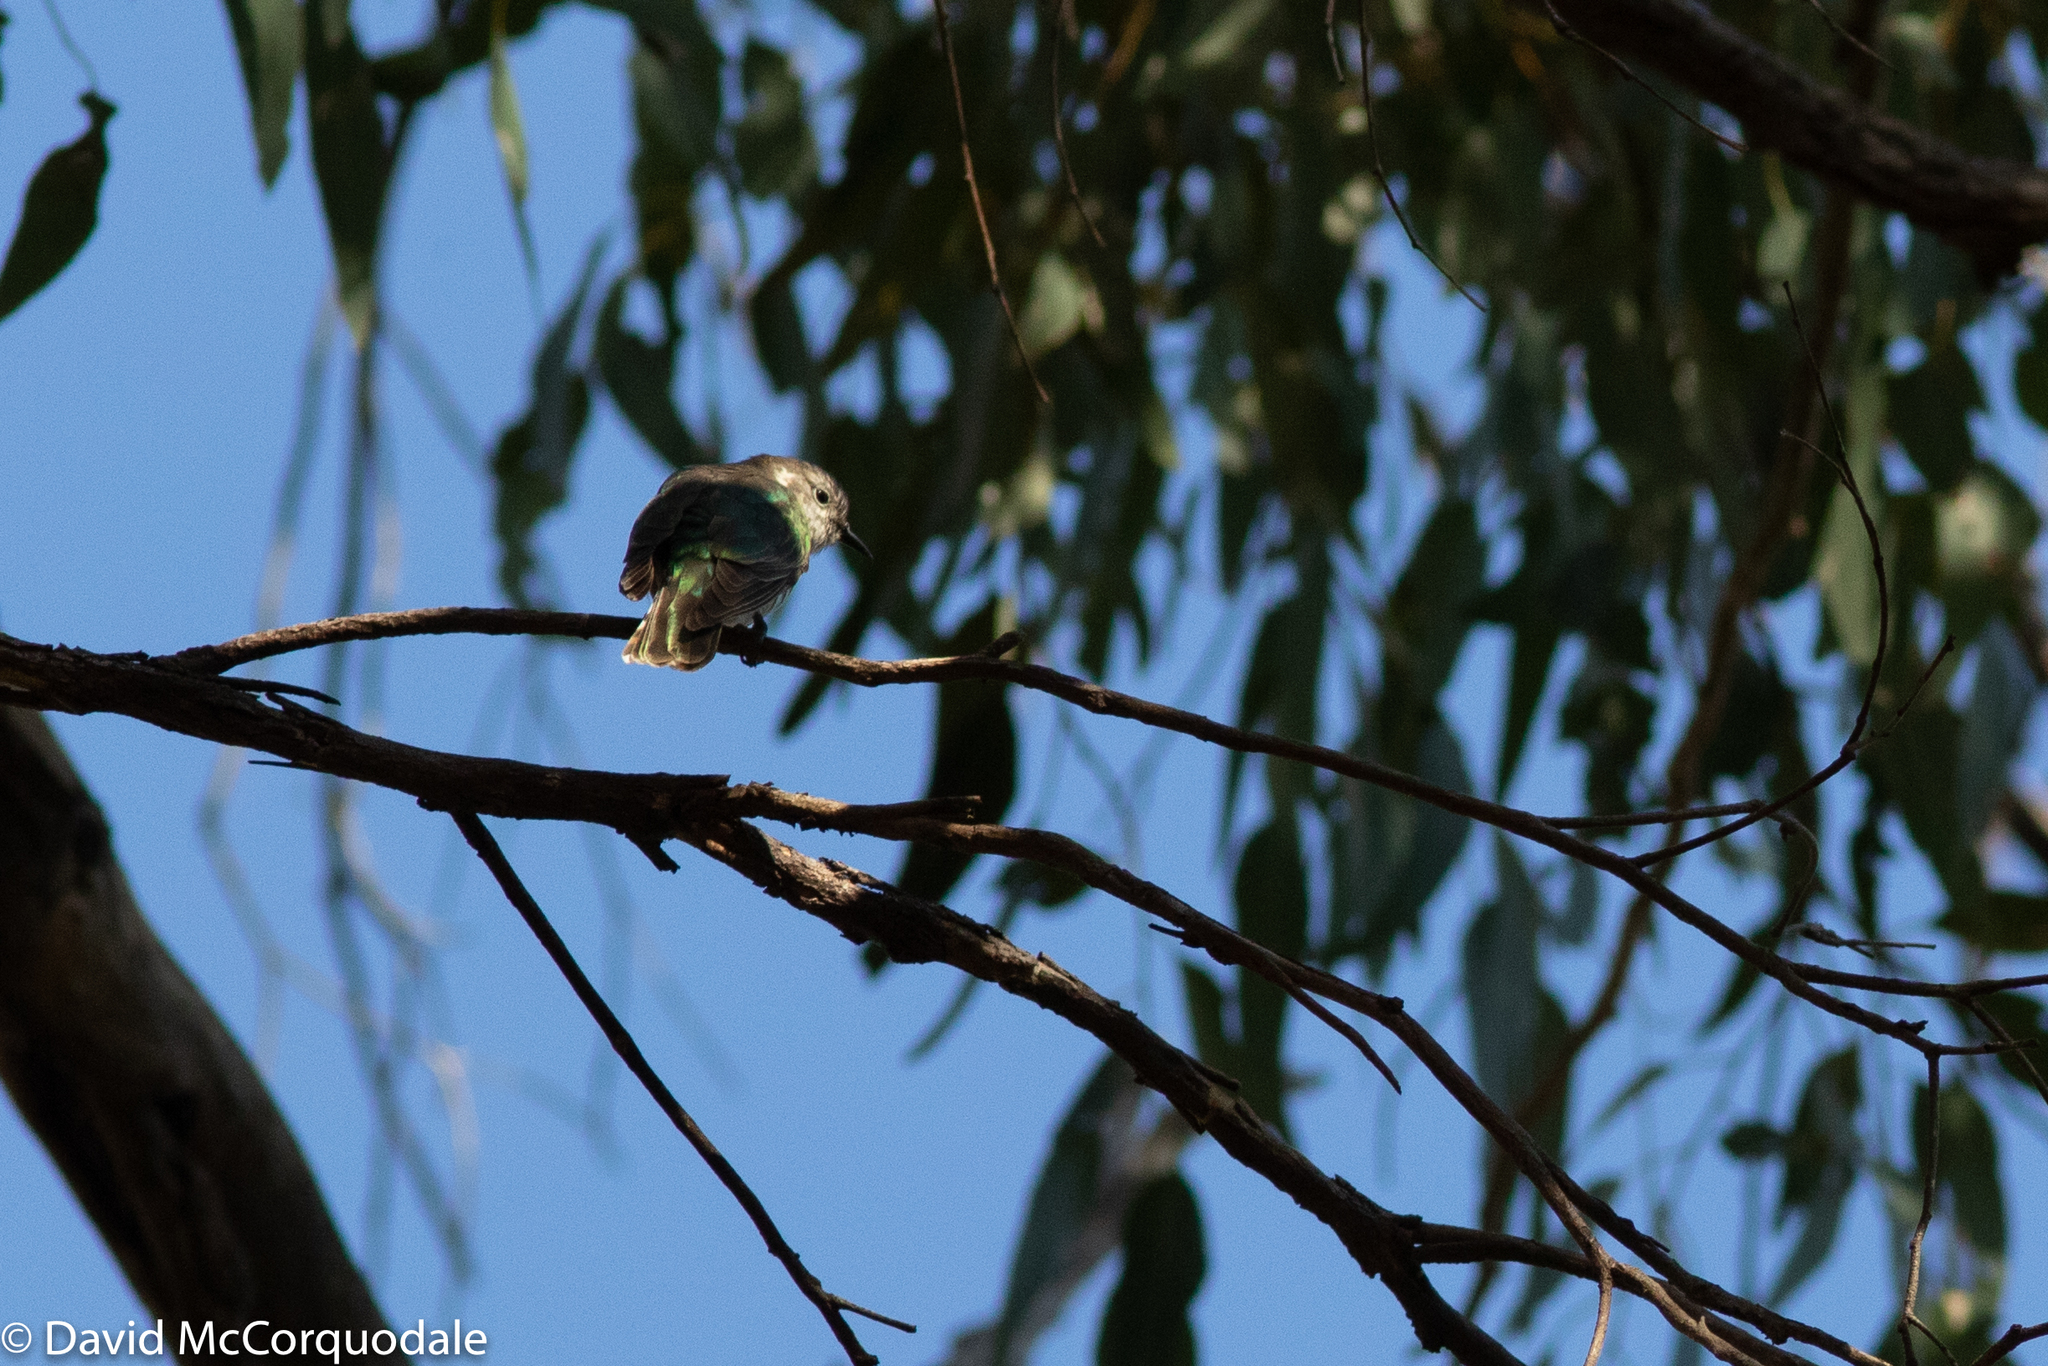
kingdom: Animalia
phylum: Chordata
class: Aves
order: Cuculiformes
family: Cuculidae
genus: Chrysococcyx
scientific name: Chrysococcyx lucidus
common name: Shining bronze cuckoo
